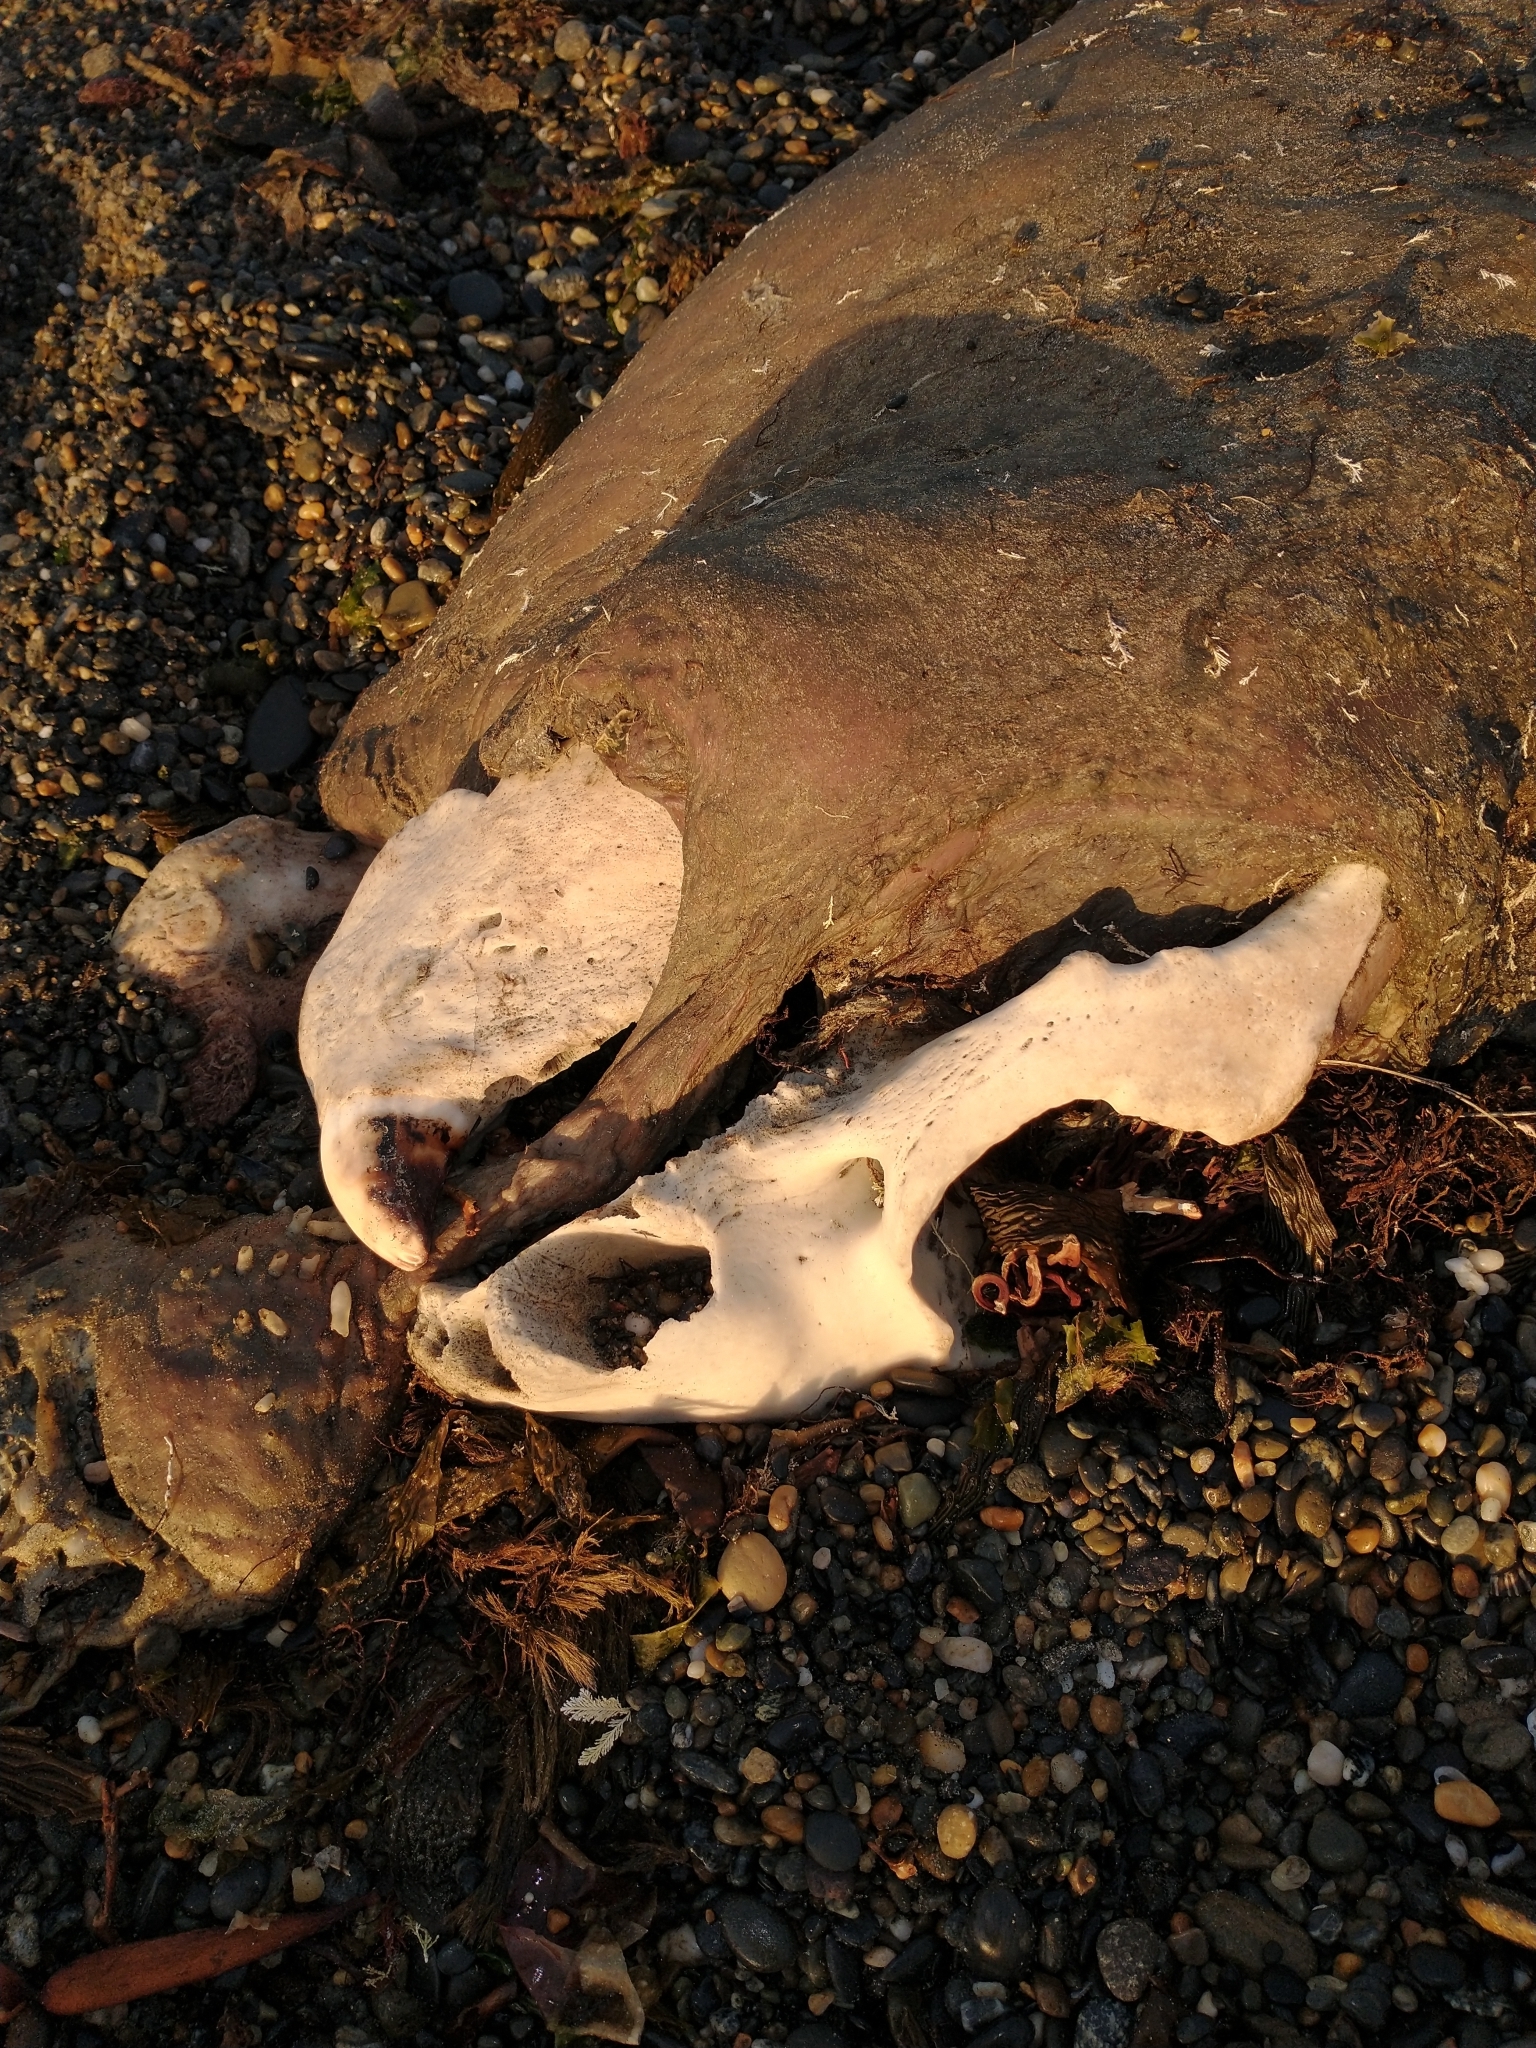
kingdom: Animalia
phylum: Chordata
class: Mammalia
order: Carnivora
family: Otariidae
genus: Otaria
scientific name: Otaria byronia
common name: South american sea lion
